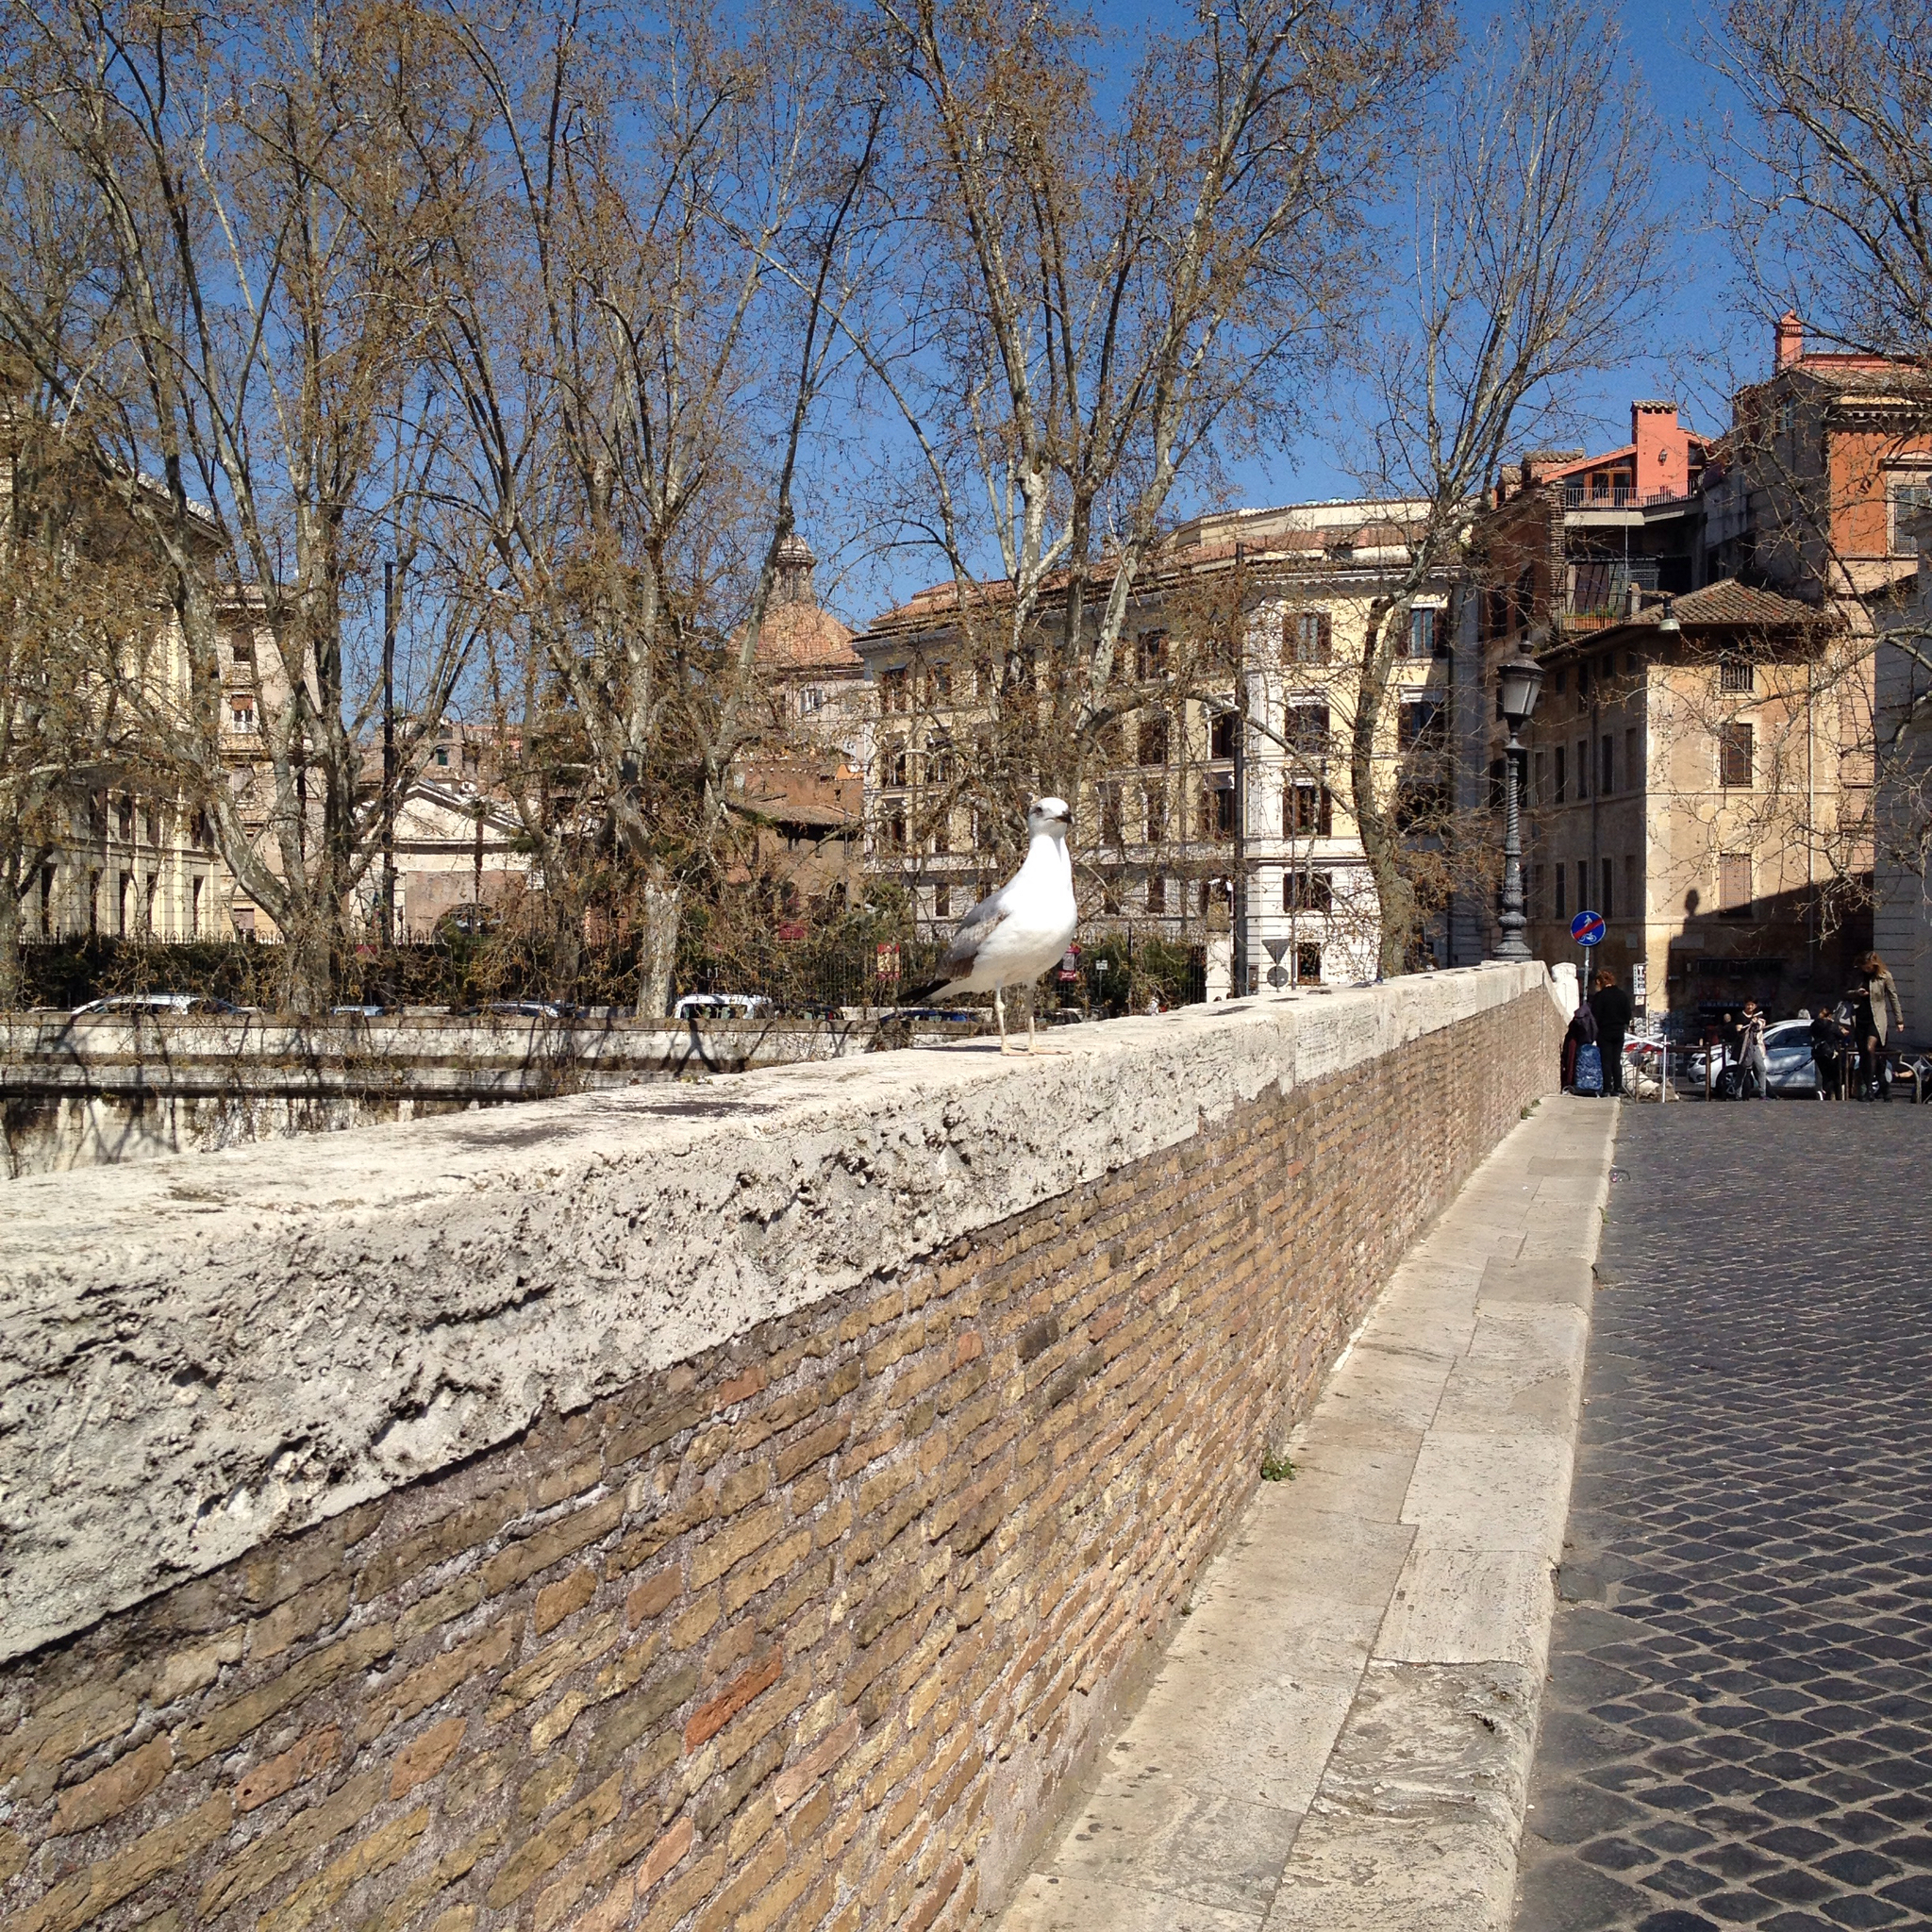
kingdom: Animalia
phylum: Chordata
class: Aves
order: Charadriiformes
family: Laridae
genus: Larus
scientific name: Larus michahellis
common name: Yellow-legged gull
